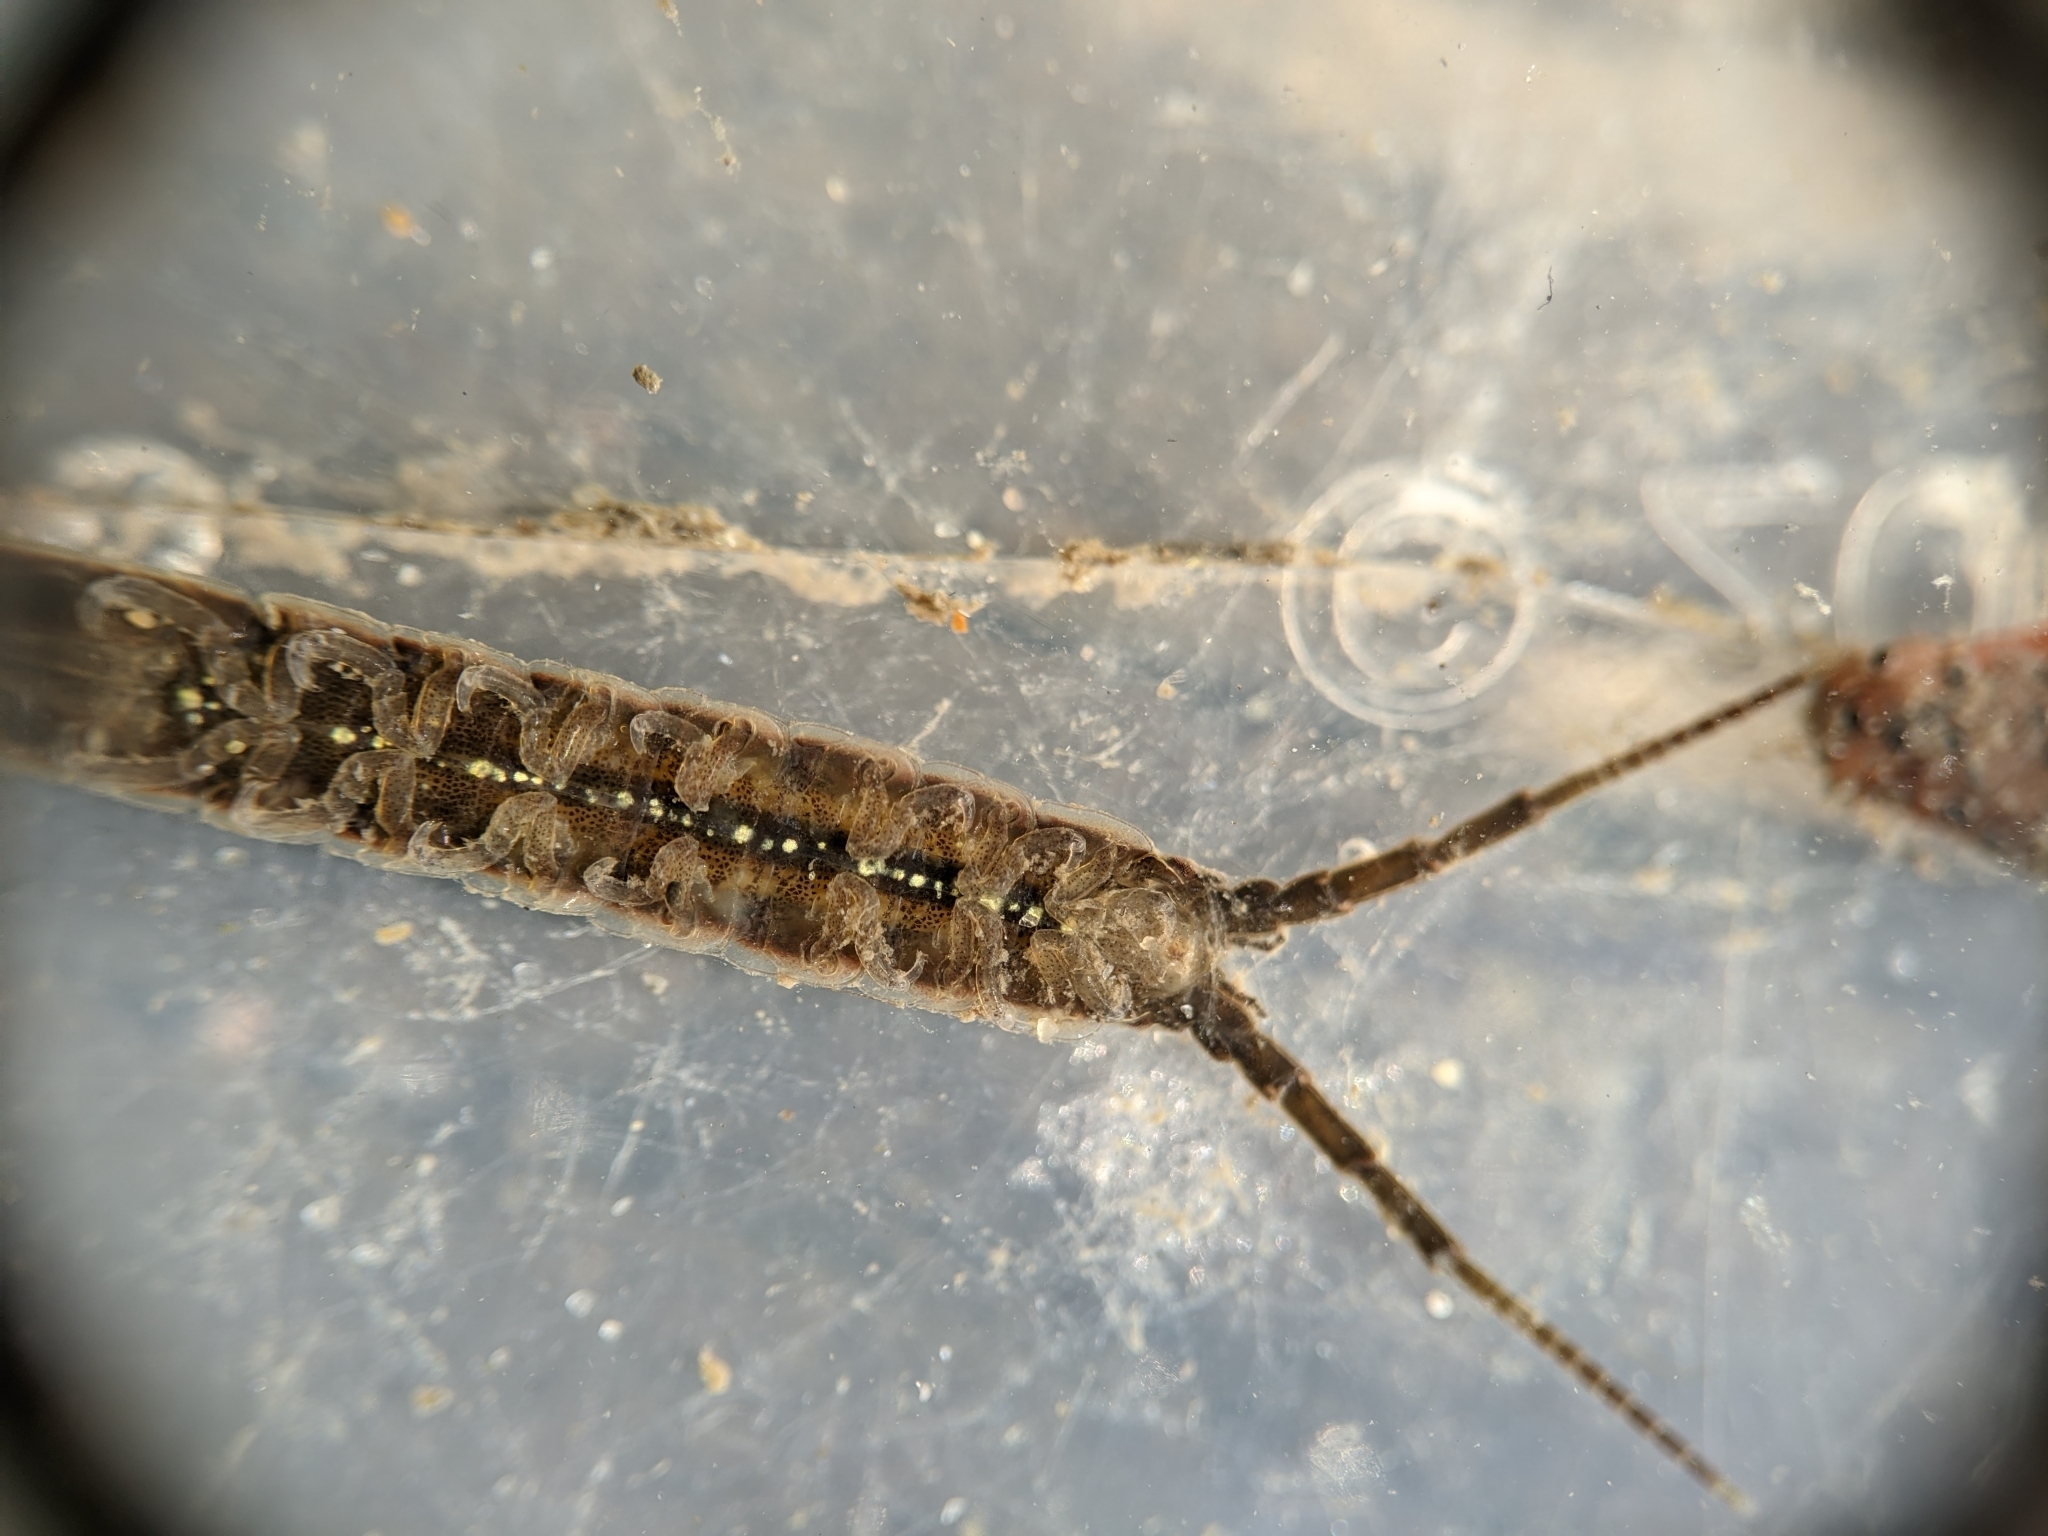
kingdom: Animalia
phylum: Arthropoda
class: Malacostraca
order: Isopoda
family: Idoteidae
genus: Idotea
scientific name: Idotea fewkesi
